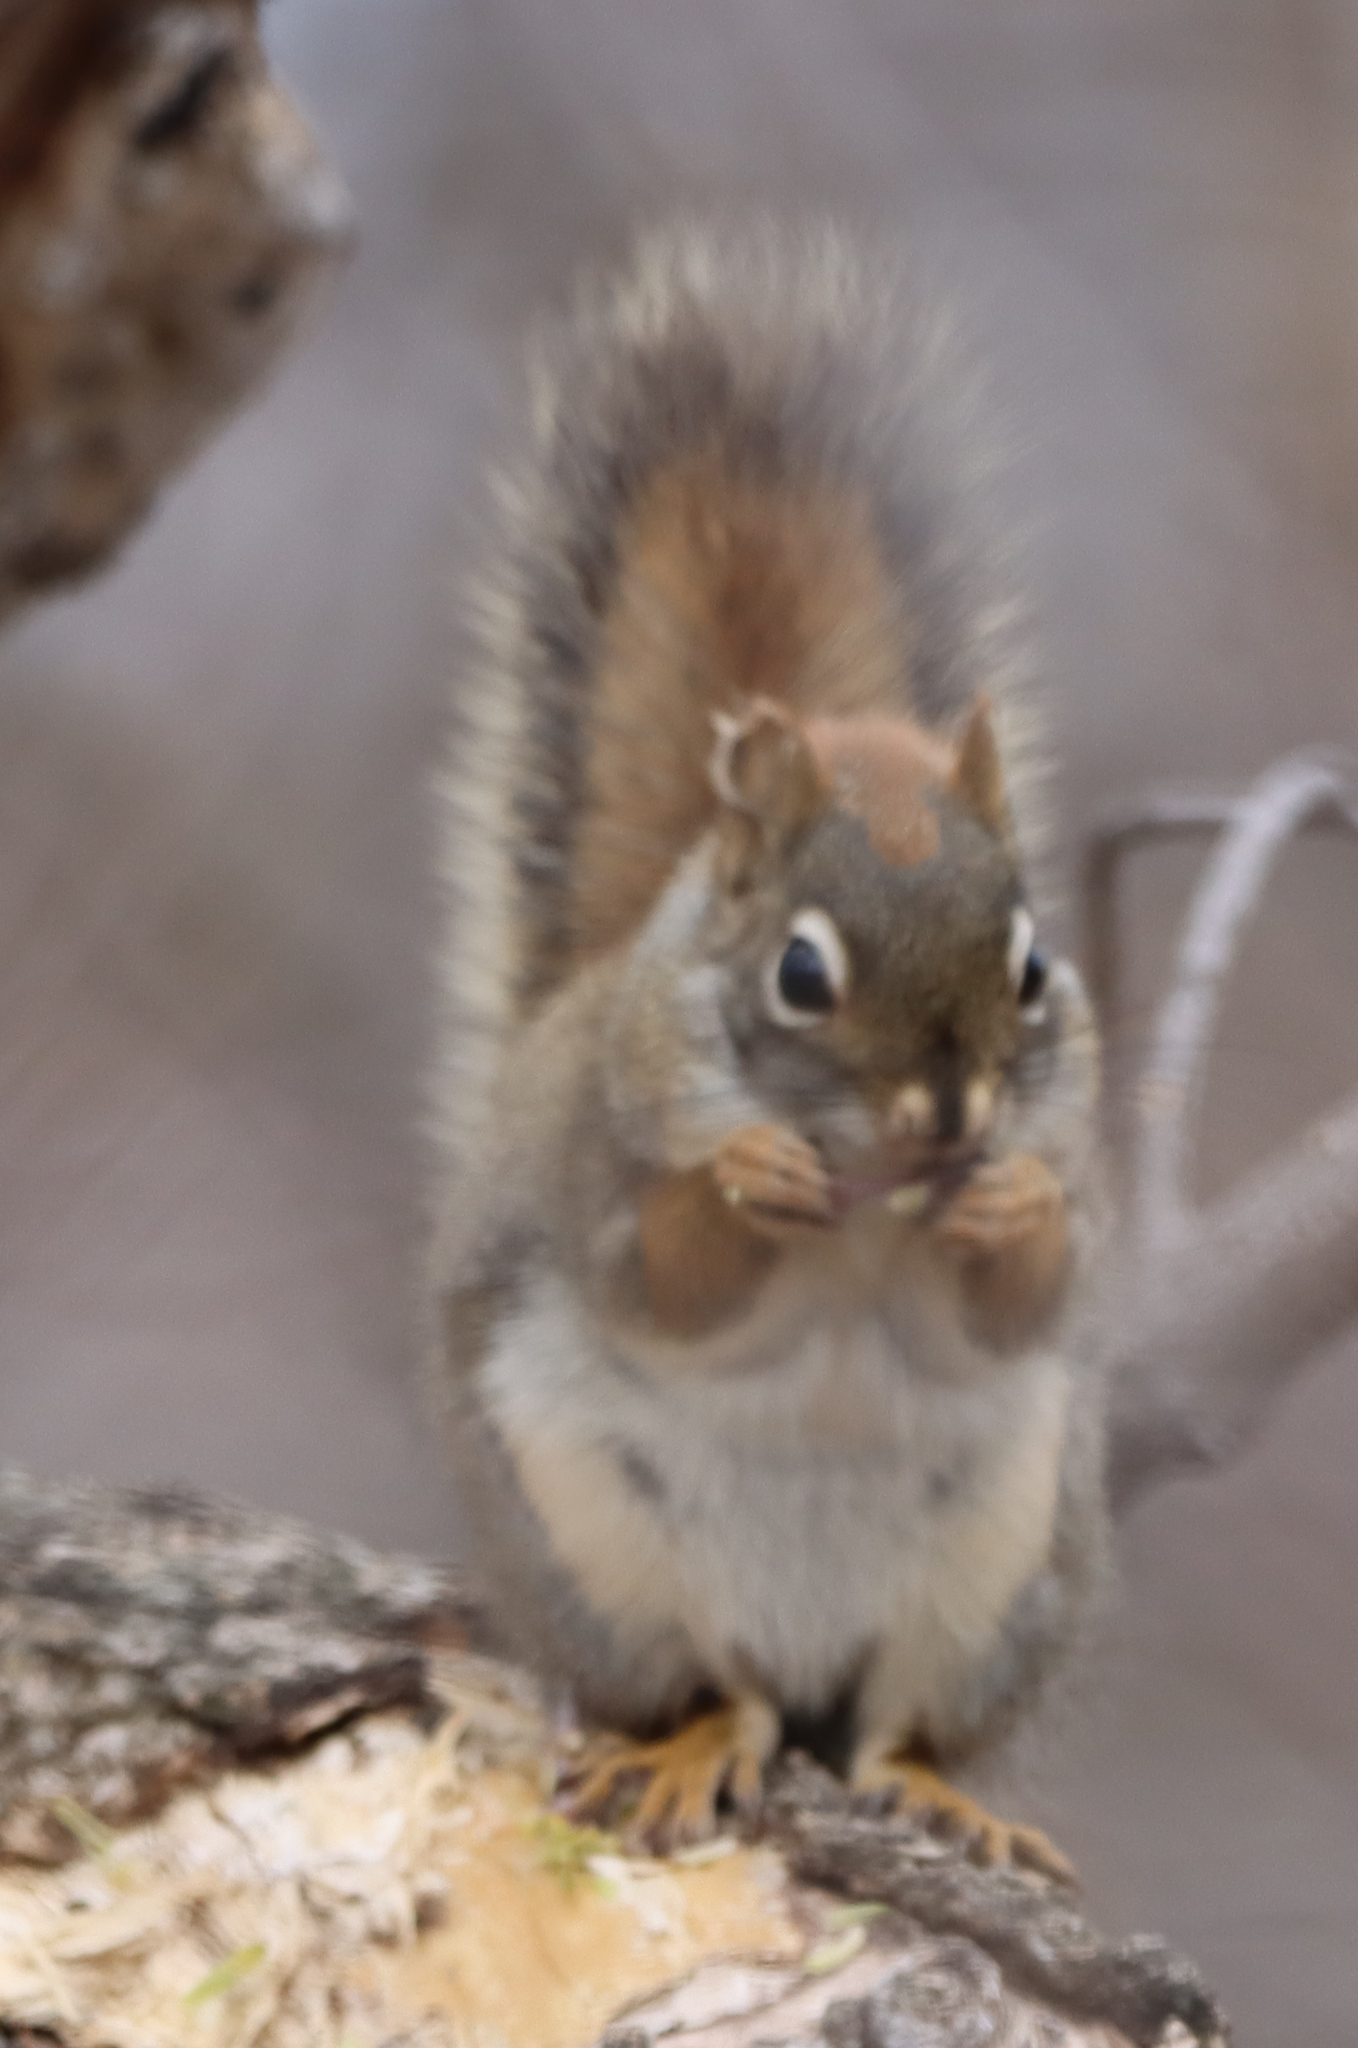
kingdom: Animalia
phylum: Chordata
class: Mammalia
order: Rodentia
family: Sciuridae
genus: Tamiasciurus
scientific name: Tamiasciurus hudsonicus
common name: Red squirrel
